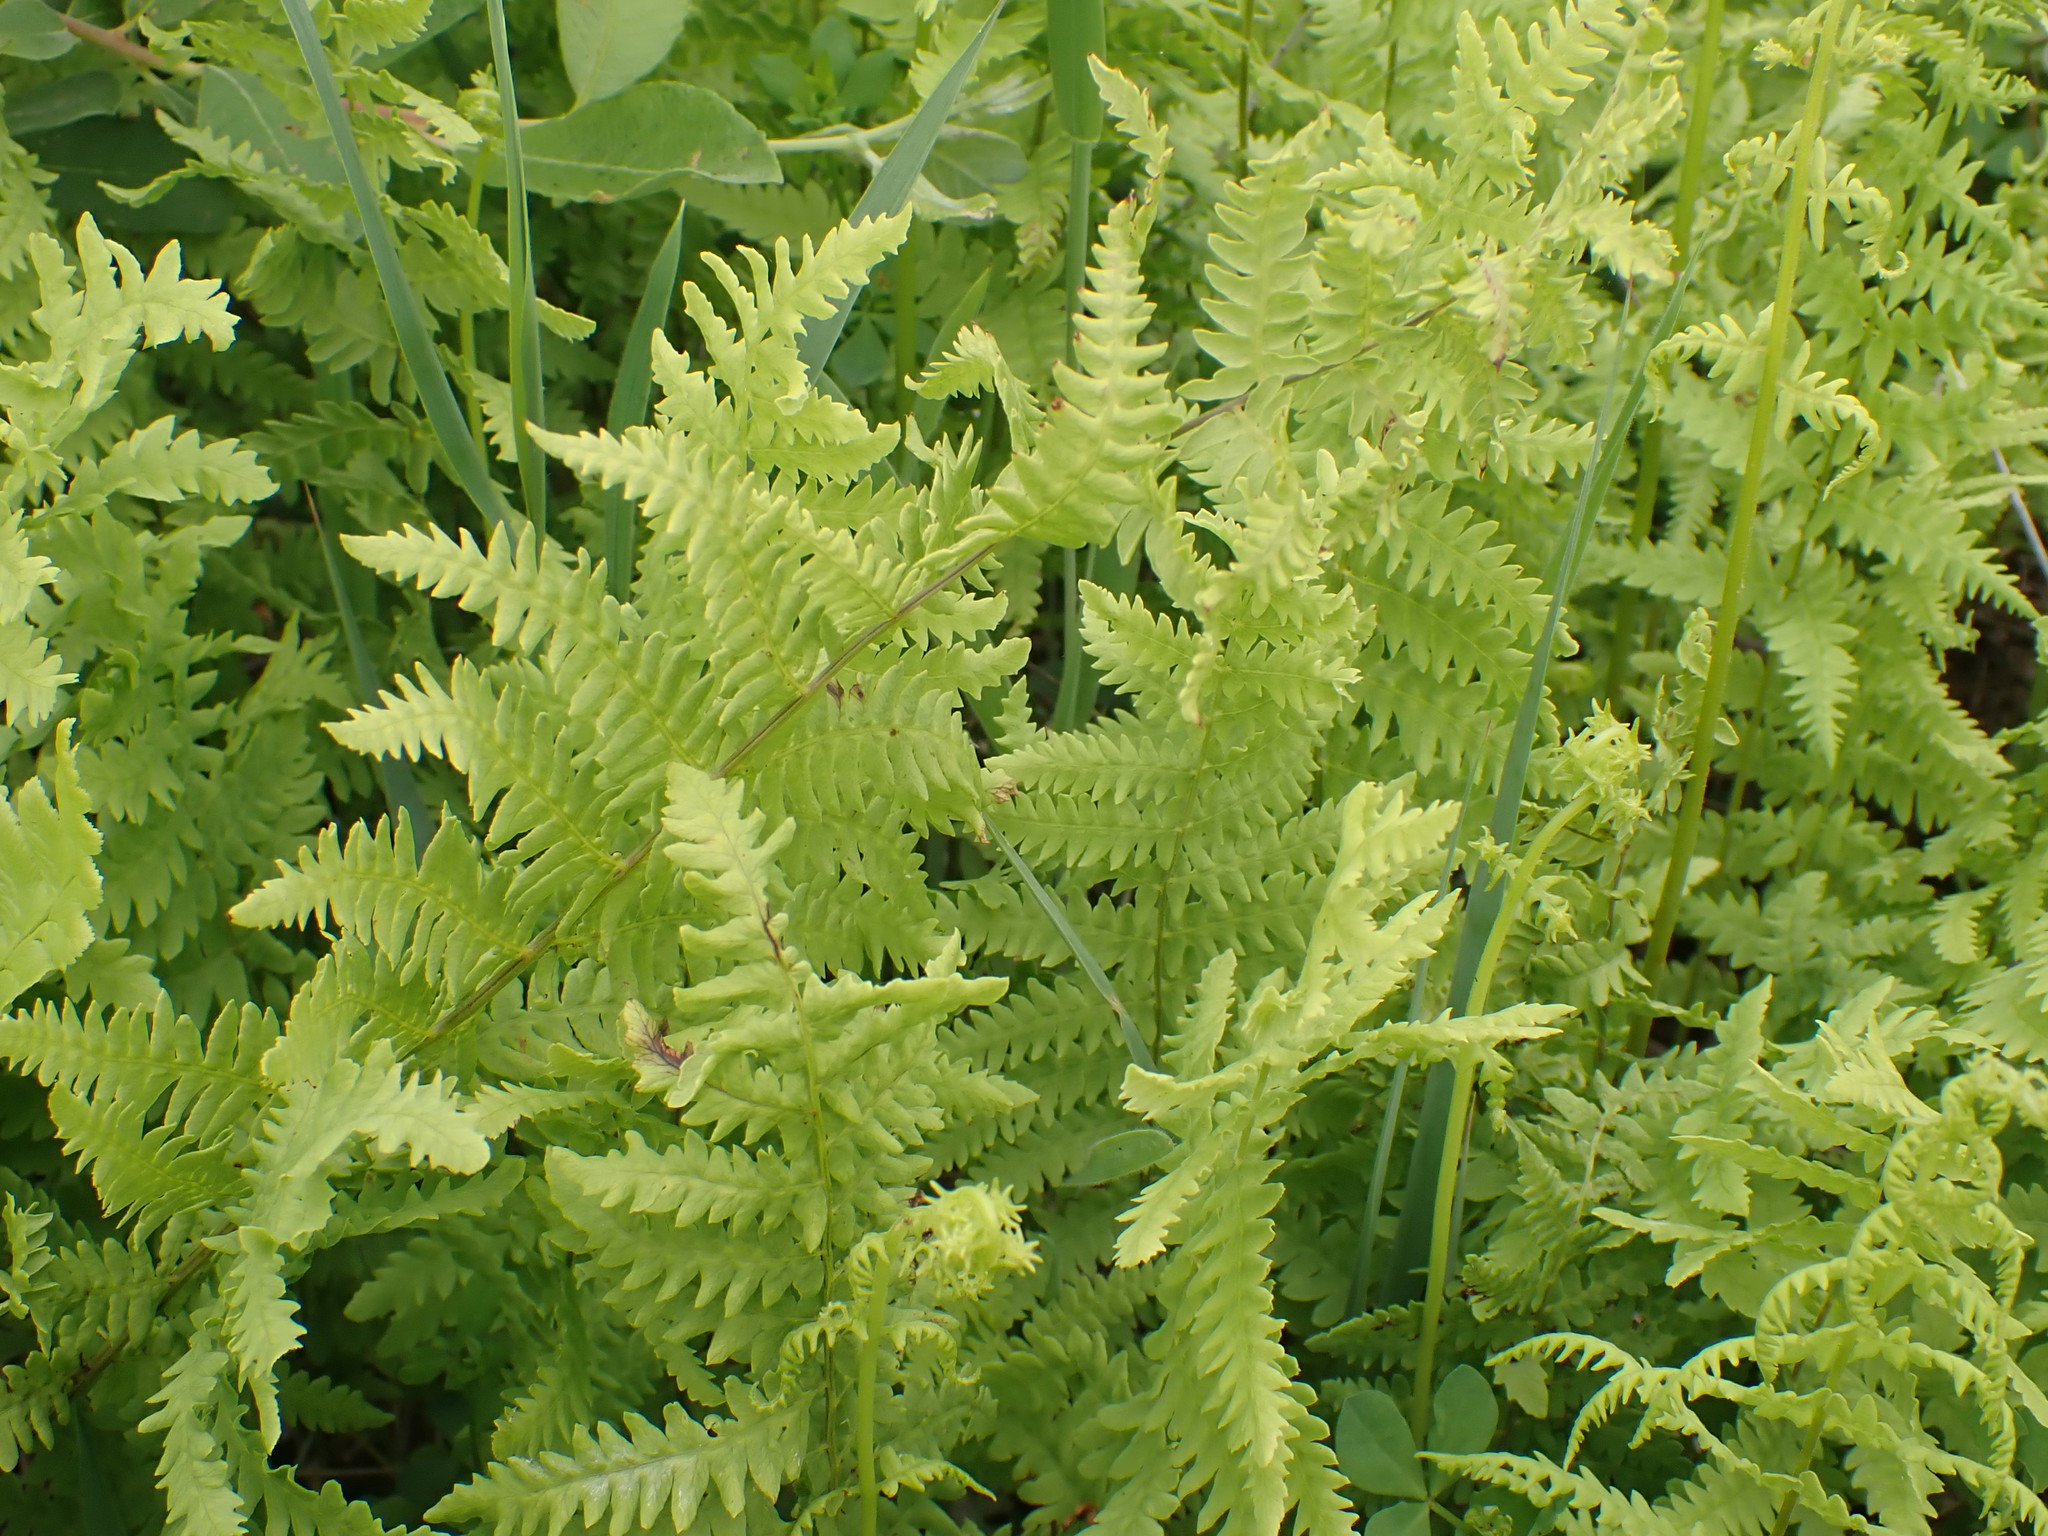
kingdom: Plantae
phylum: Tracheophyta
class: Polypodiopsida
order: Polypodiales
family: Thelypteridaceae
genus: Thelypteris
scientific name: Thelypteris palustris
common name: Marsh fern
